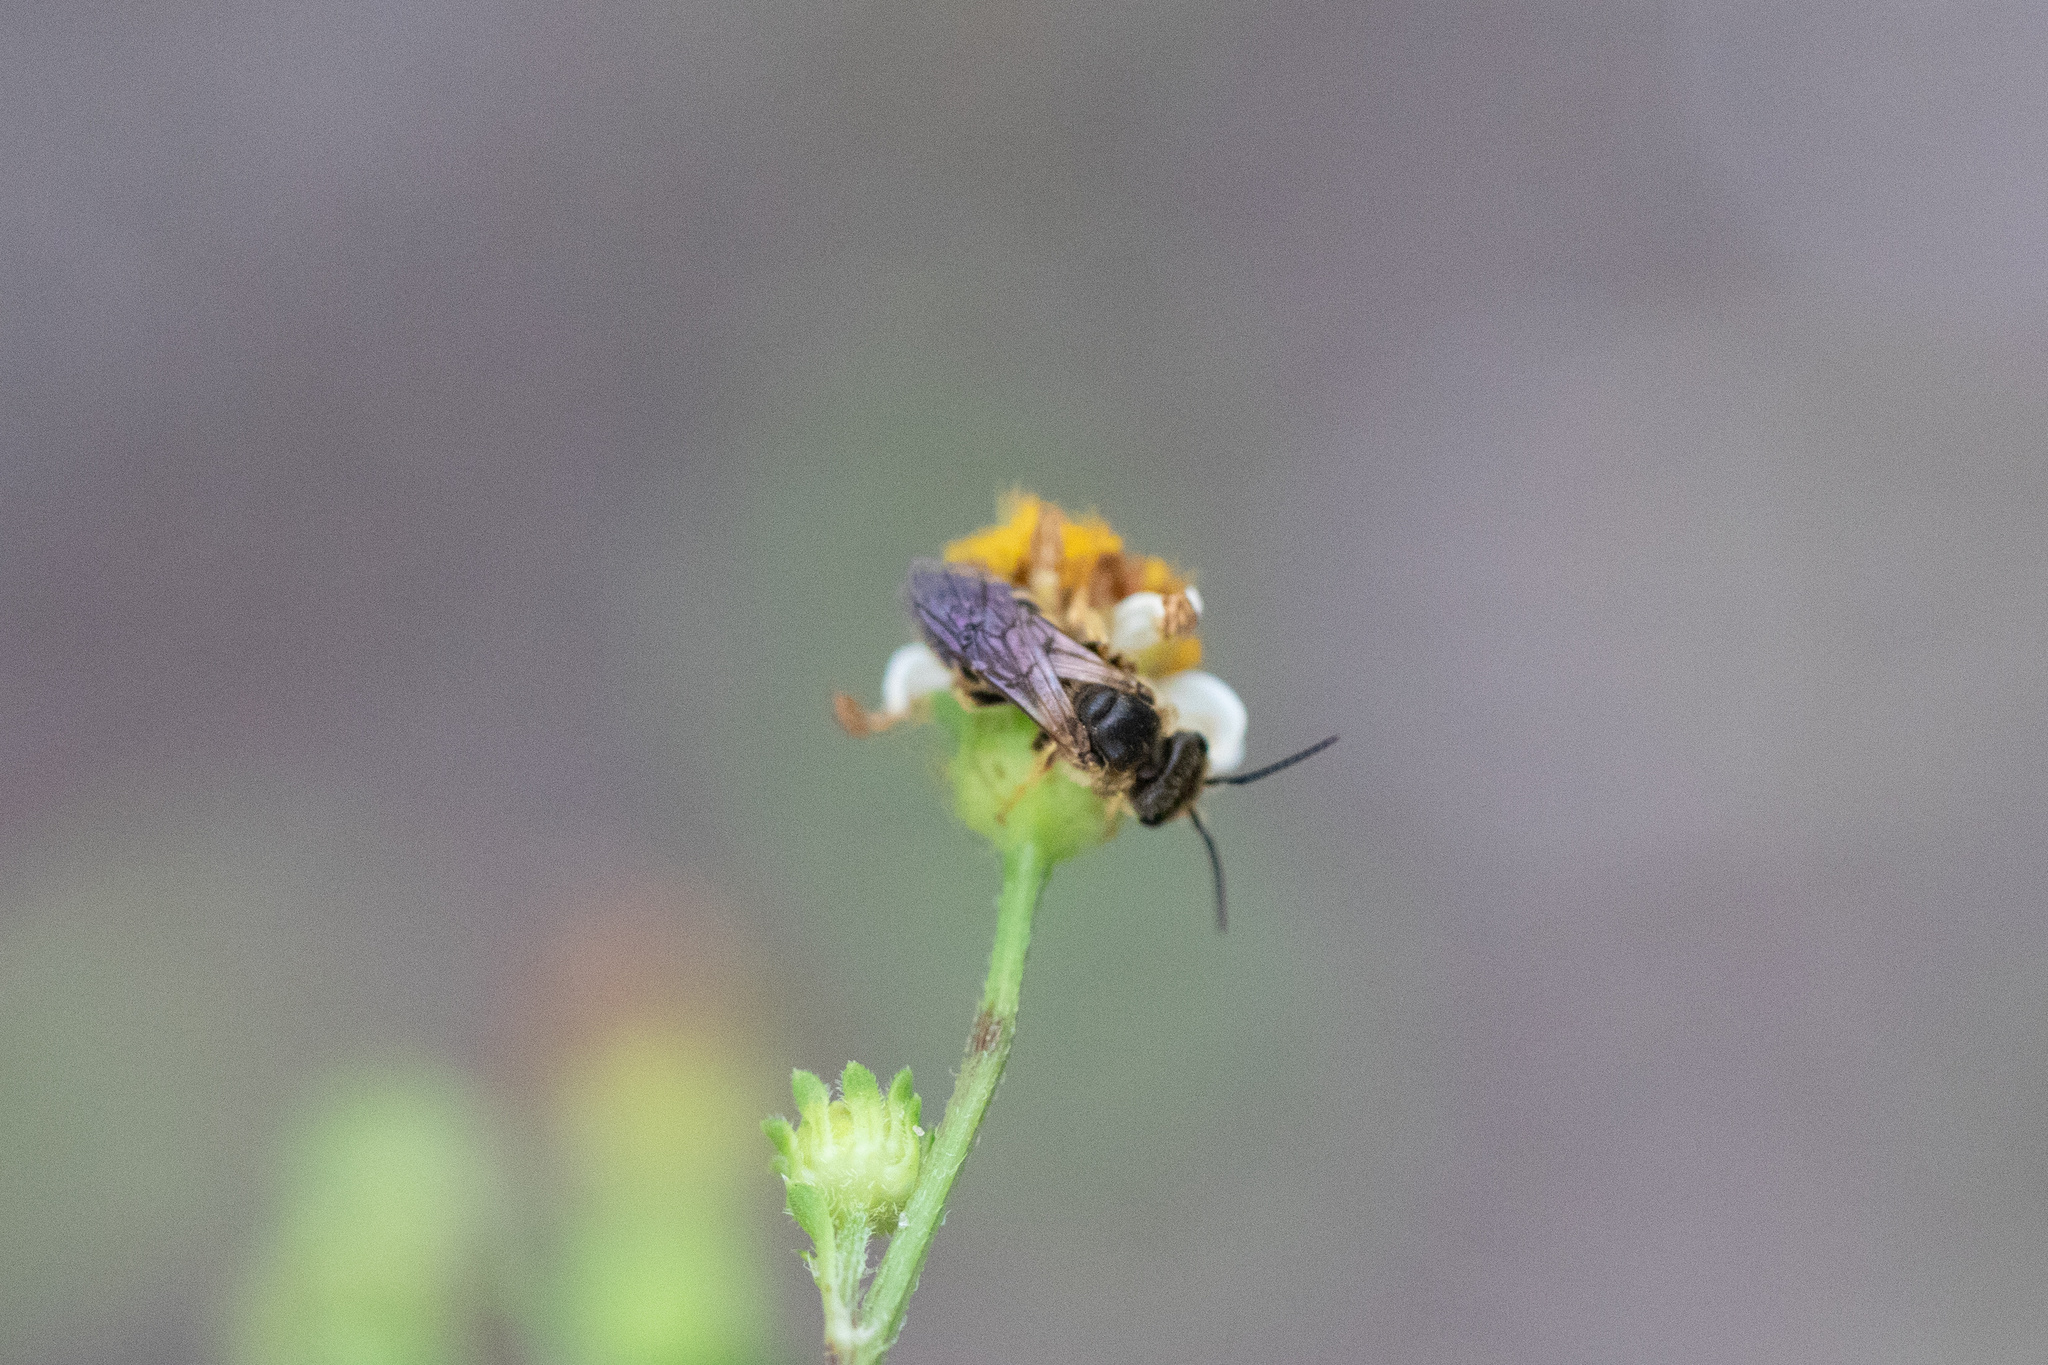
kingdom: Animalia
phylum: Arthropoda
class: Insecta
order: Hymenoptera
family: Halictidae
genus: Halictus
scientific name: Halictus poeyi
